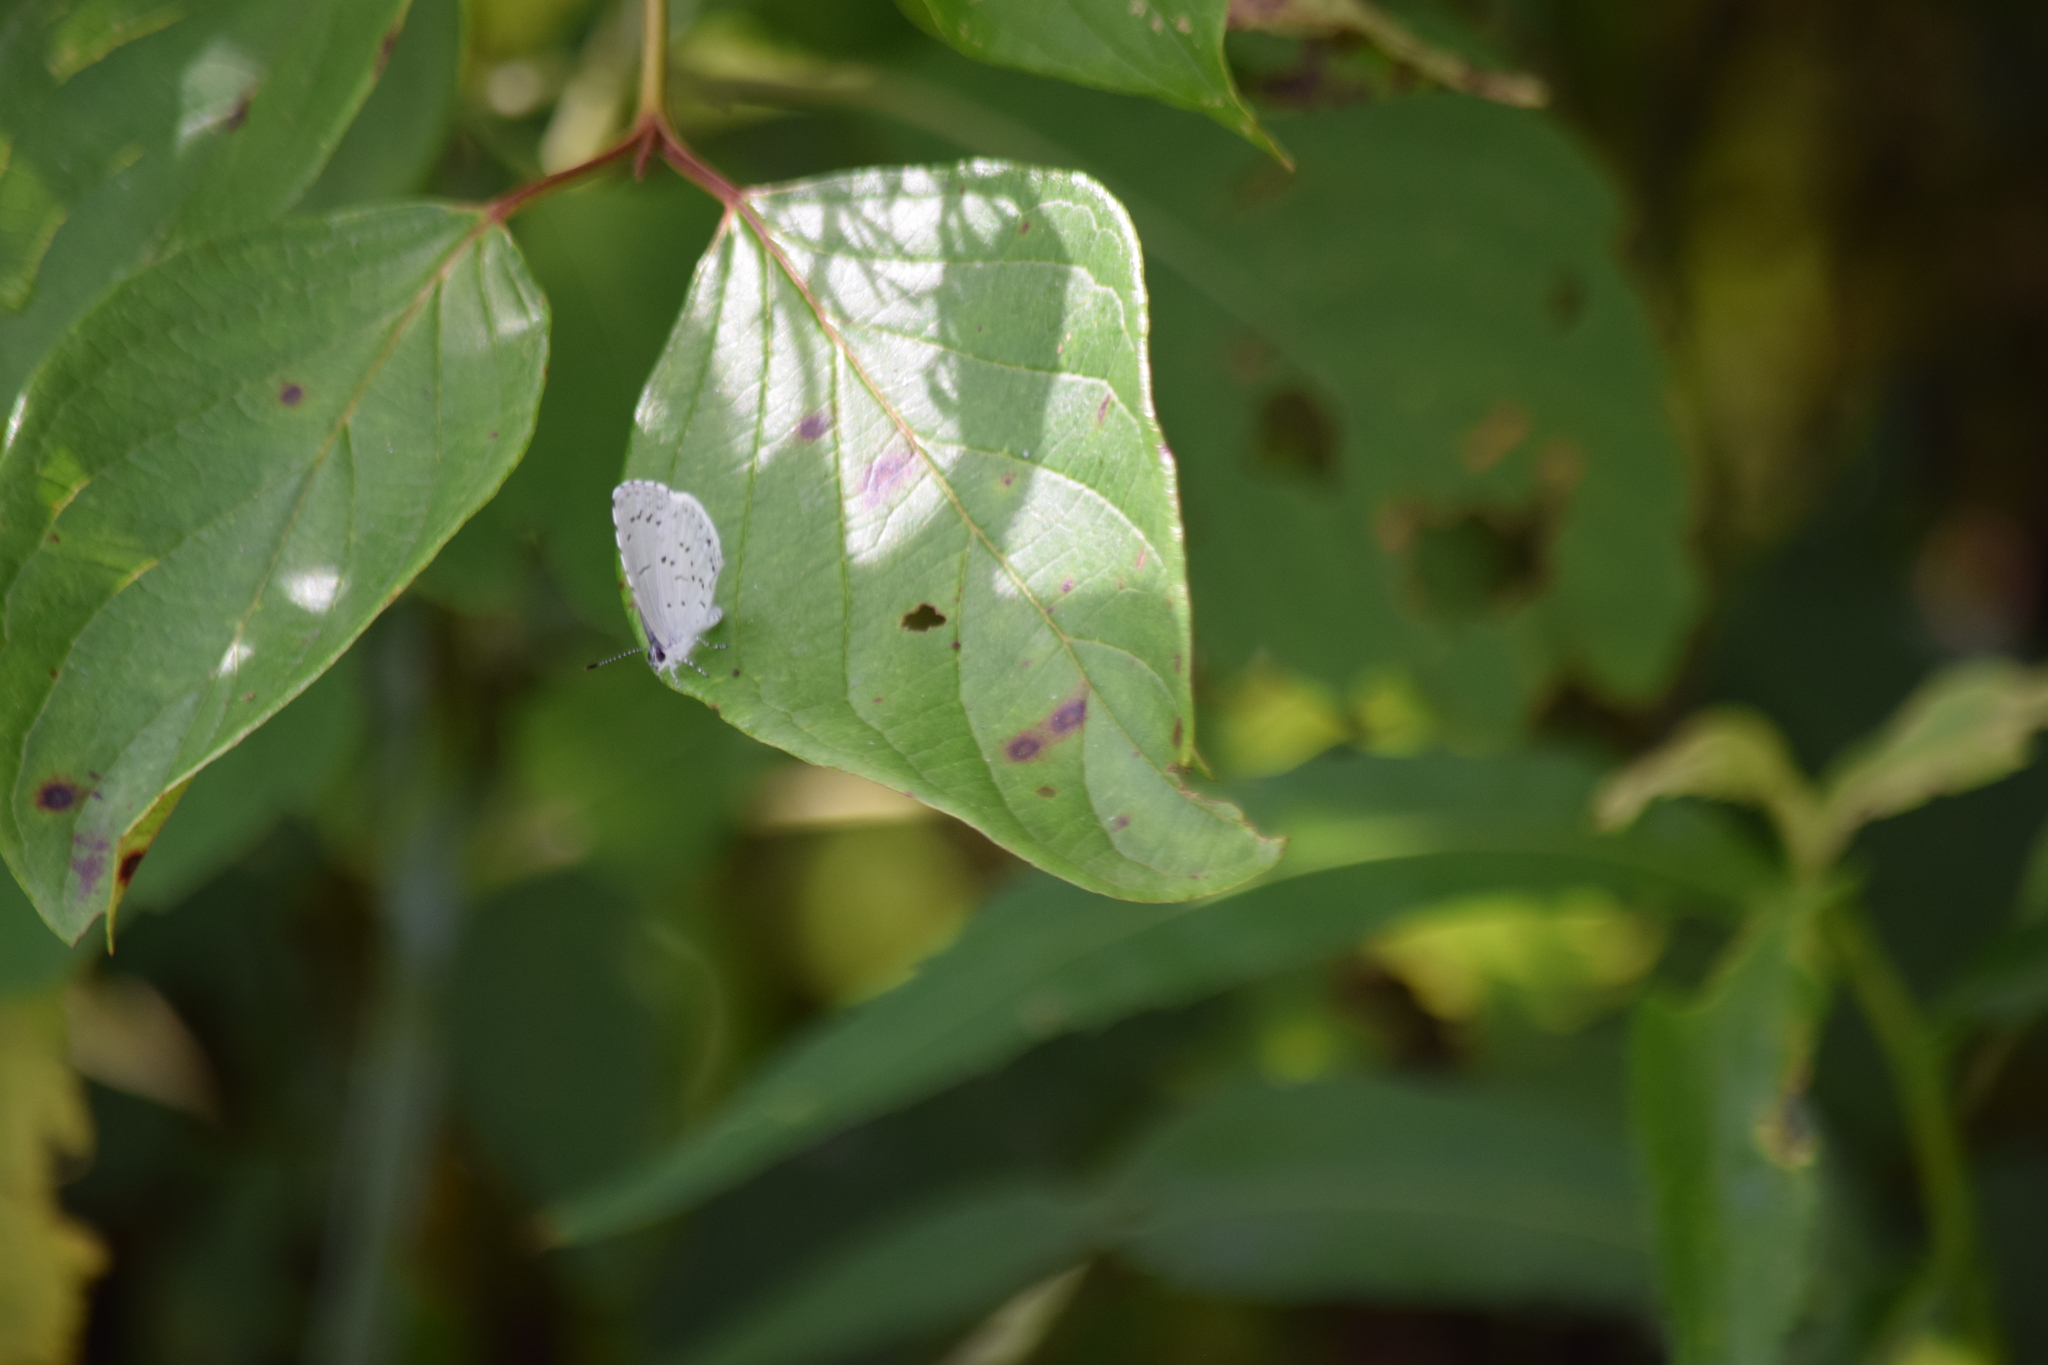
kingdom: Animalia
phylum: Arthropoda
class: Insecta
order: Lepidoptera
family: Lycaenidae
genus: Cyaniris
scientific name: Cyaniris neglecta
